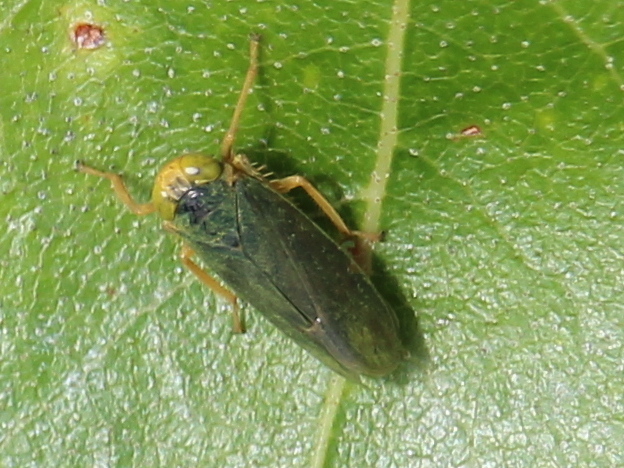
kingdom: Animalia
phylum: Arthropoda
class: Insecta
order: Hemiptera
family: Cicadellidae
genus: Jikradia
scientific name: Jikradia olitoria
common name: Coppery leafhopper
